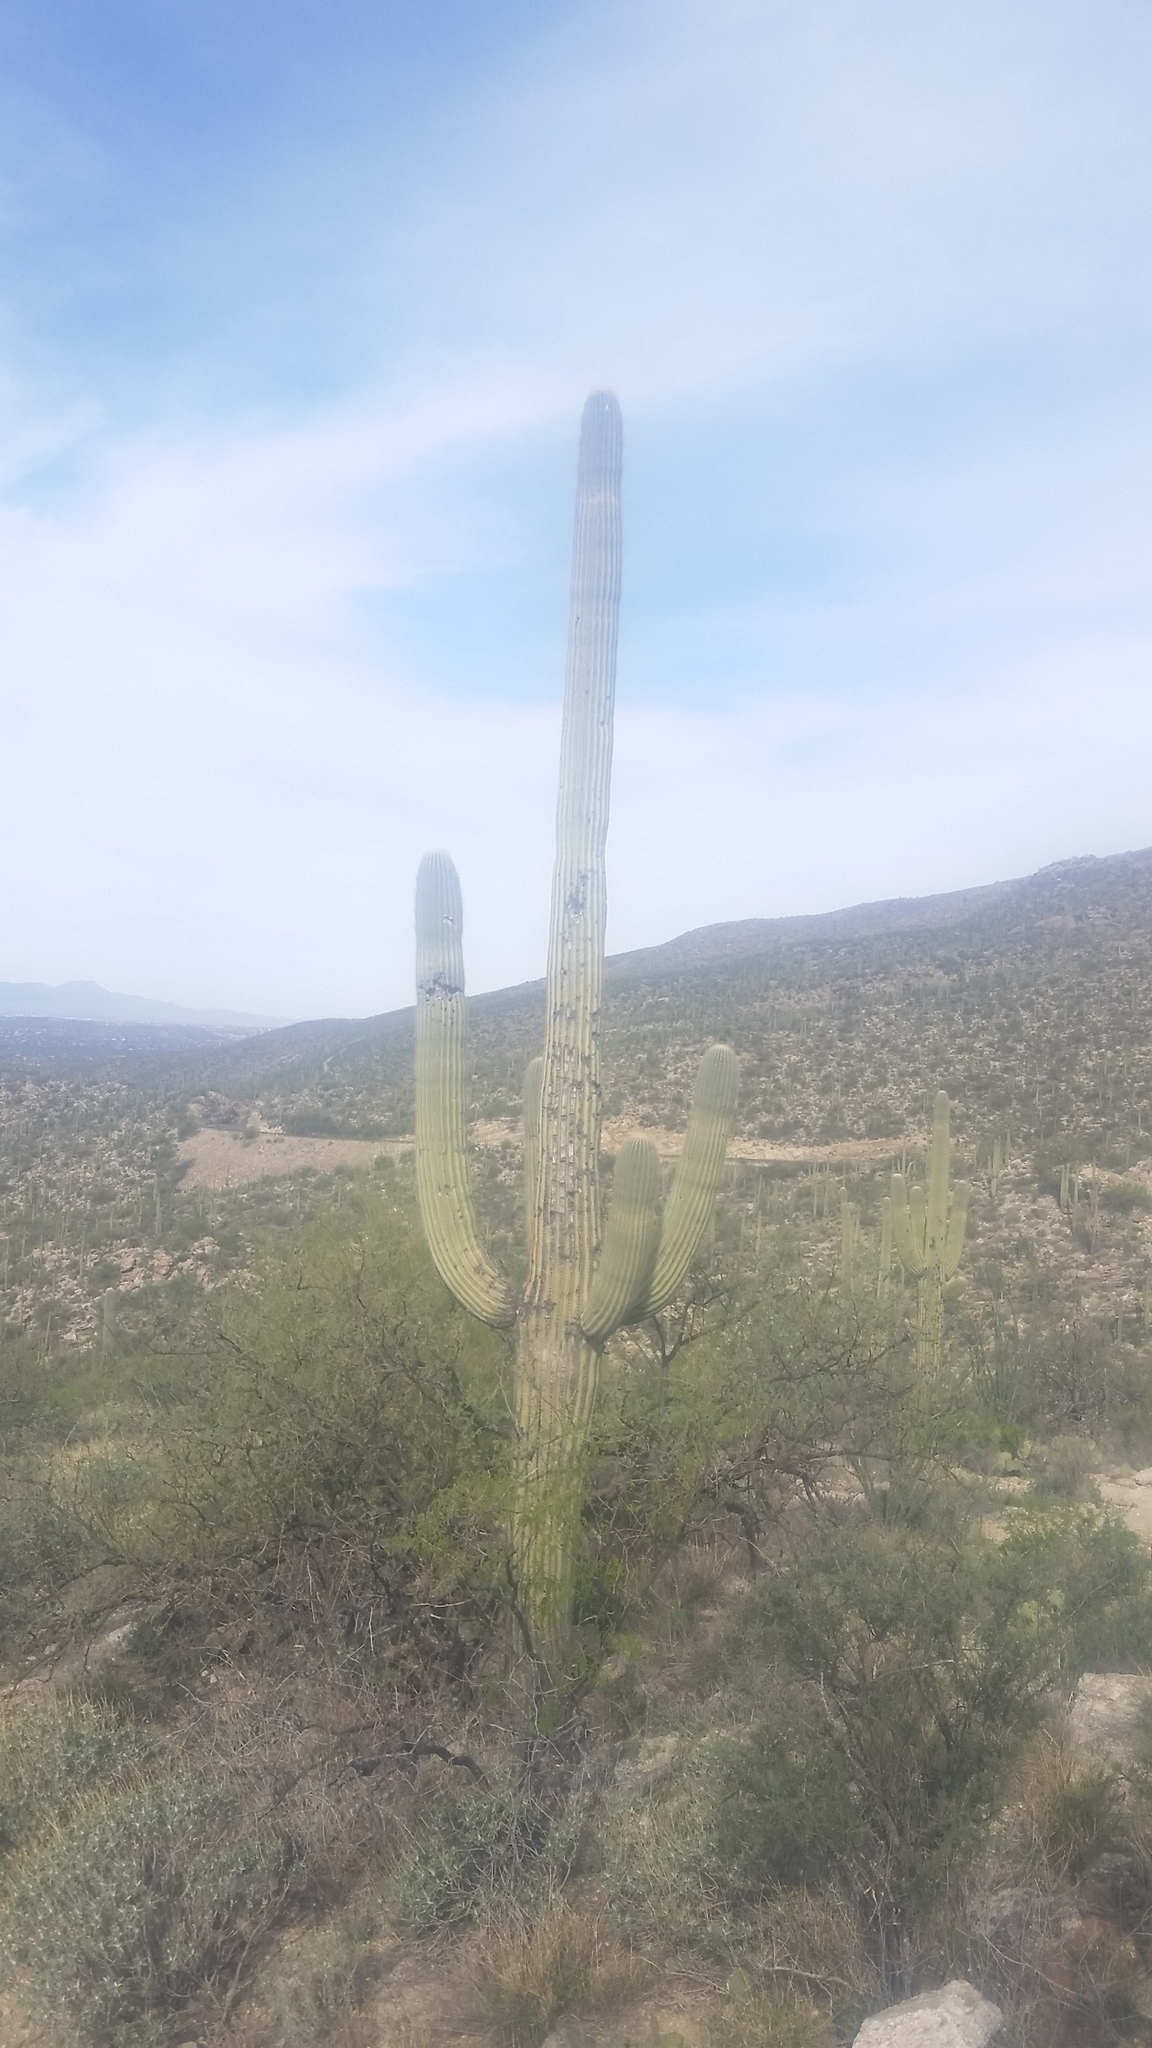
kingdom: Plantae
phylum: Tracheophyta
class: Magnoliopsida
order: Caryophyllales
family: Cactaceae
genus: Carnegiea
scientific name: Carnegiea gigantea
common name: Saguaro
